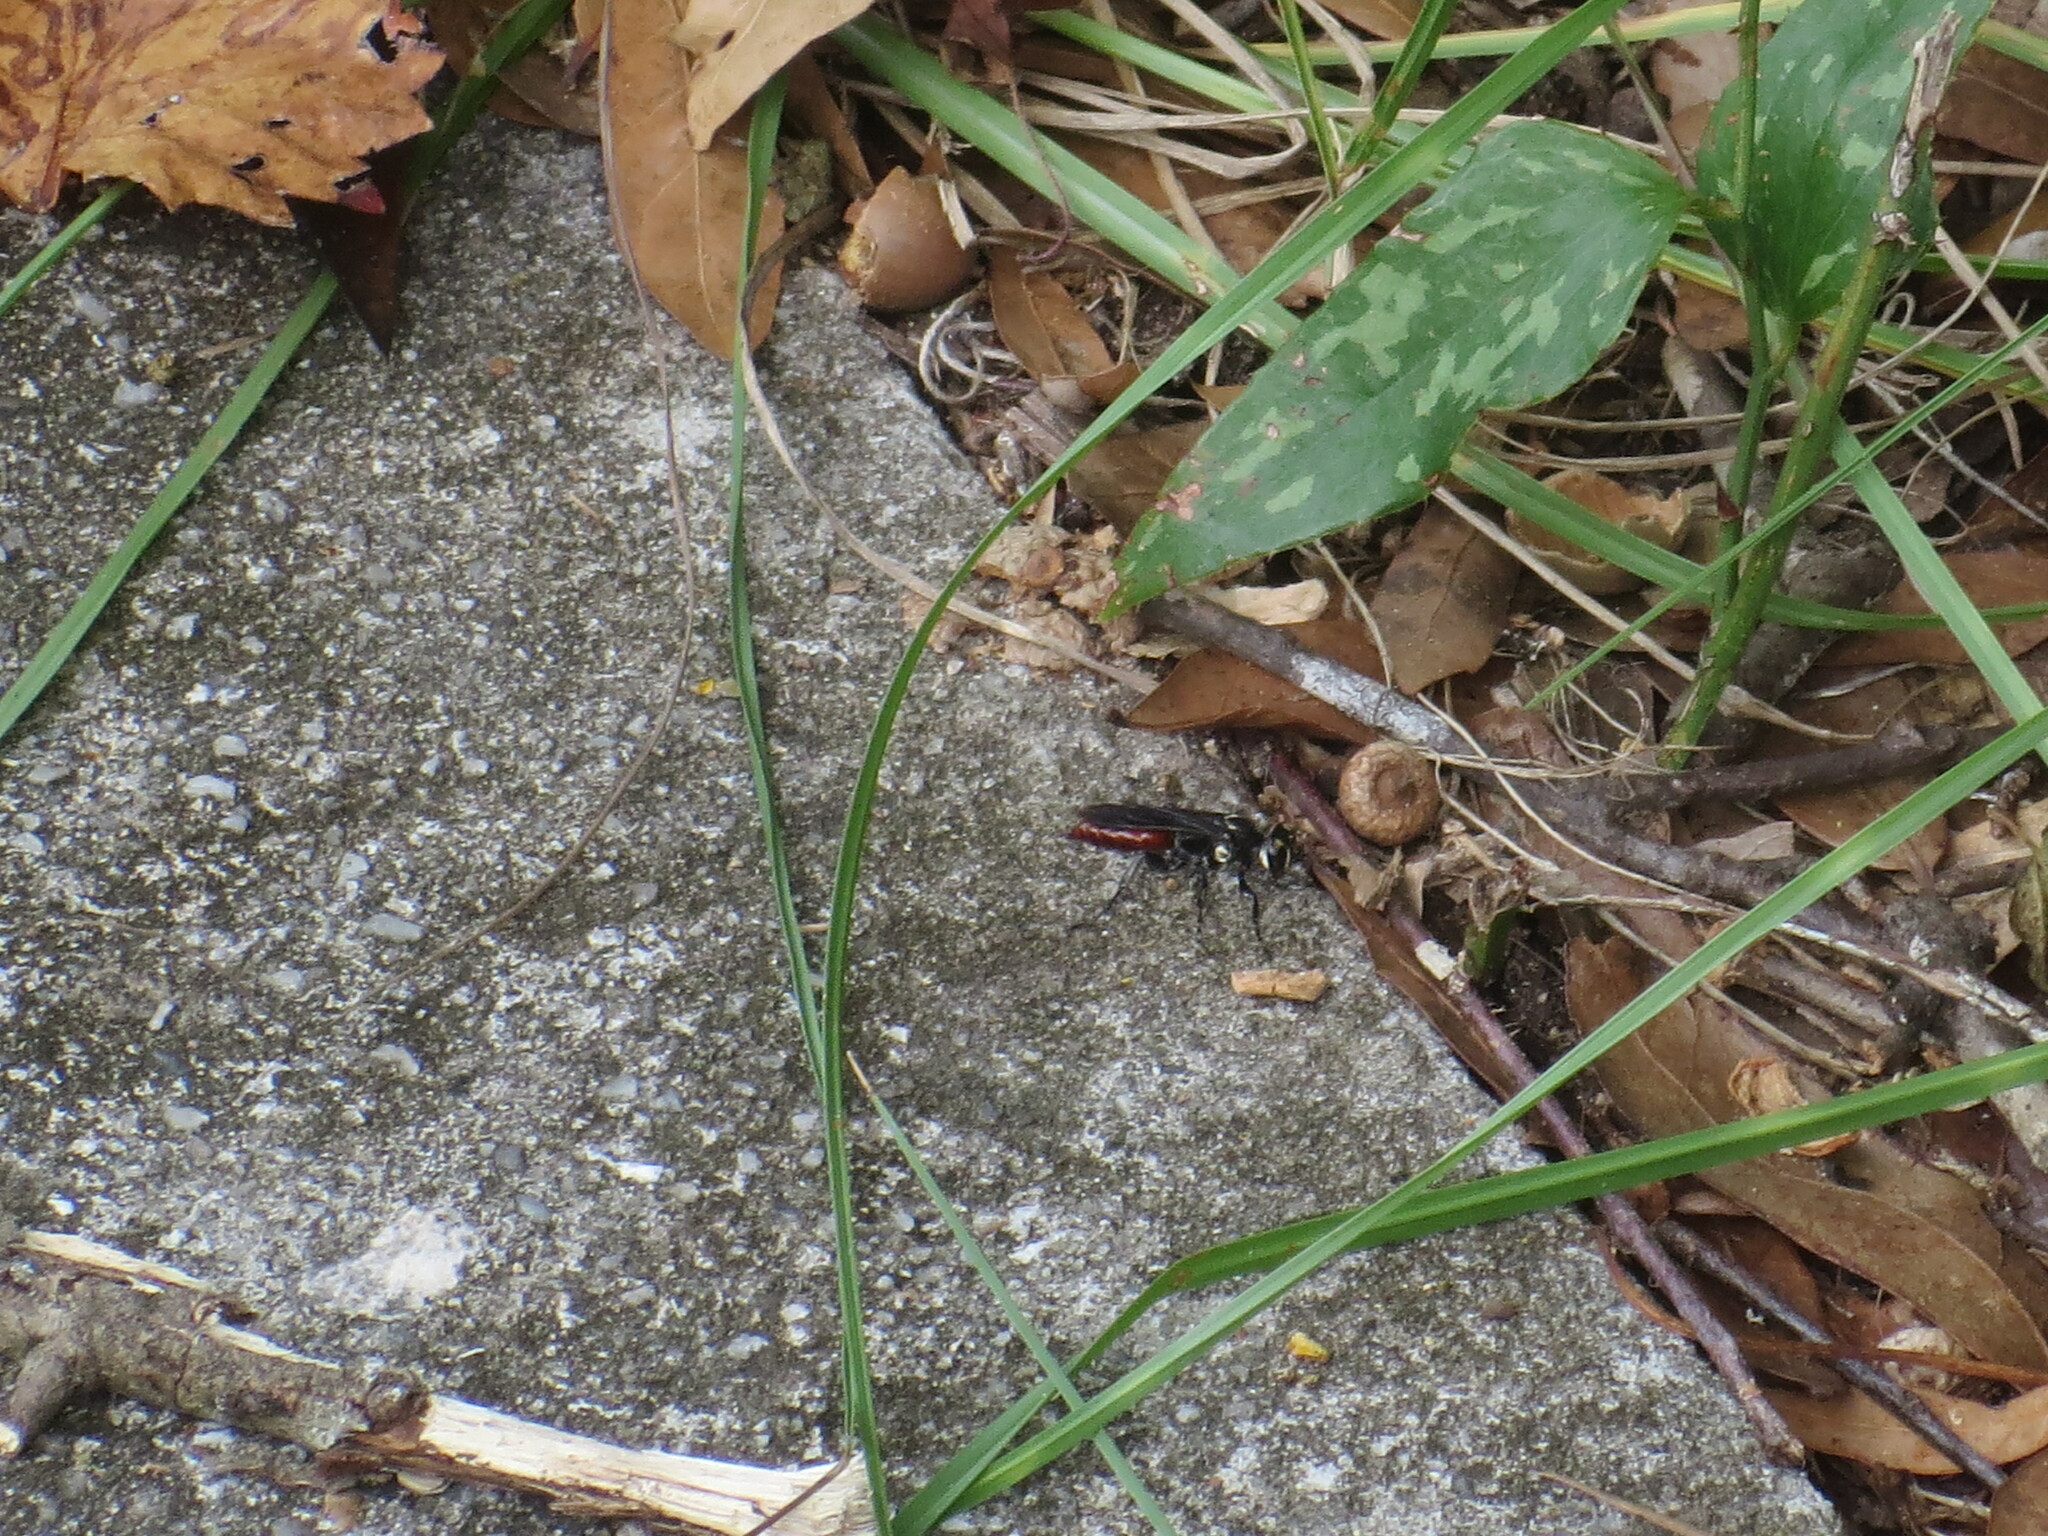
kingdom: Animalia
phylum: Arthropoda
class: Insecta
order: Hymenoptera
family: Crabronidae
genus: Larra
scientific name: Larra bicolor
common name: Wasp
